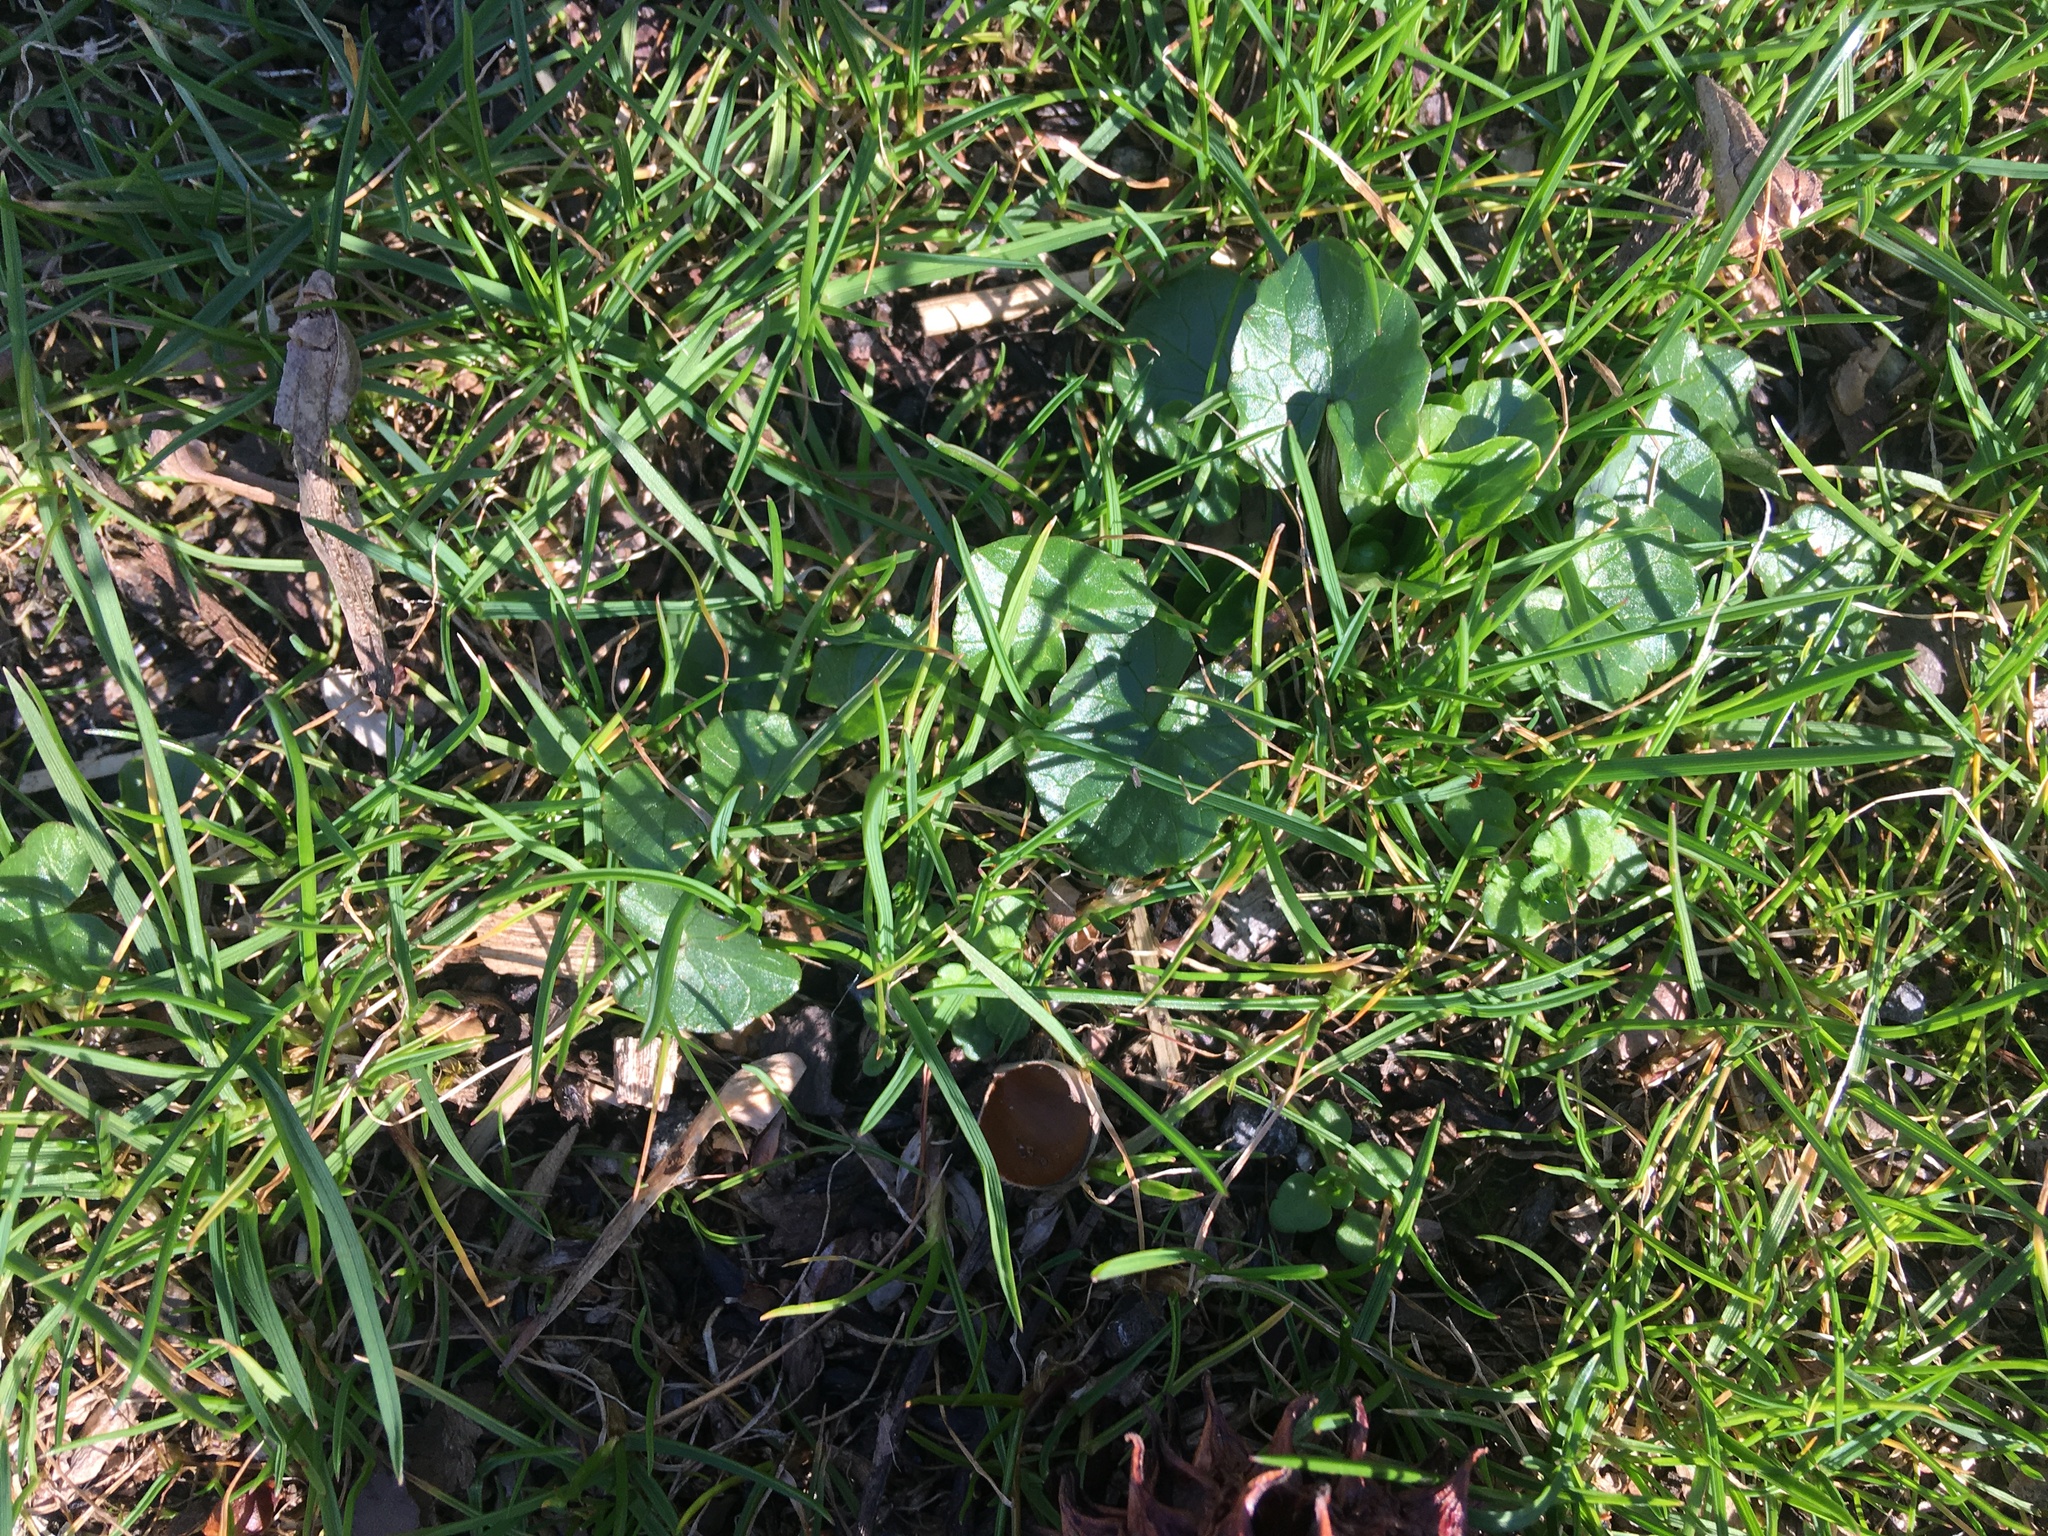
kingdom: Plantae
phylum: Tracheophyta
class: Magnoliopsida
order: Ranunculales
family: Ranunculaceae
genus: Ficaria
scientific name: Ficaria verna
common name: Lesser celandine
